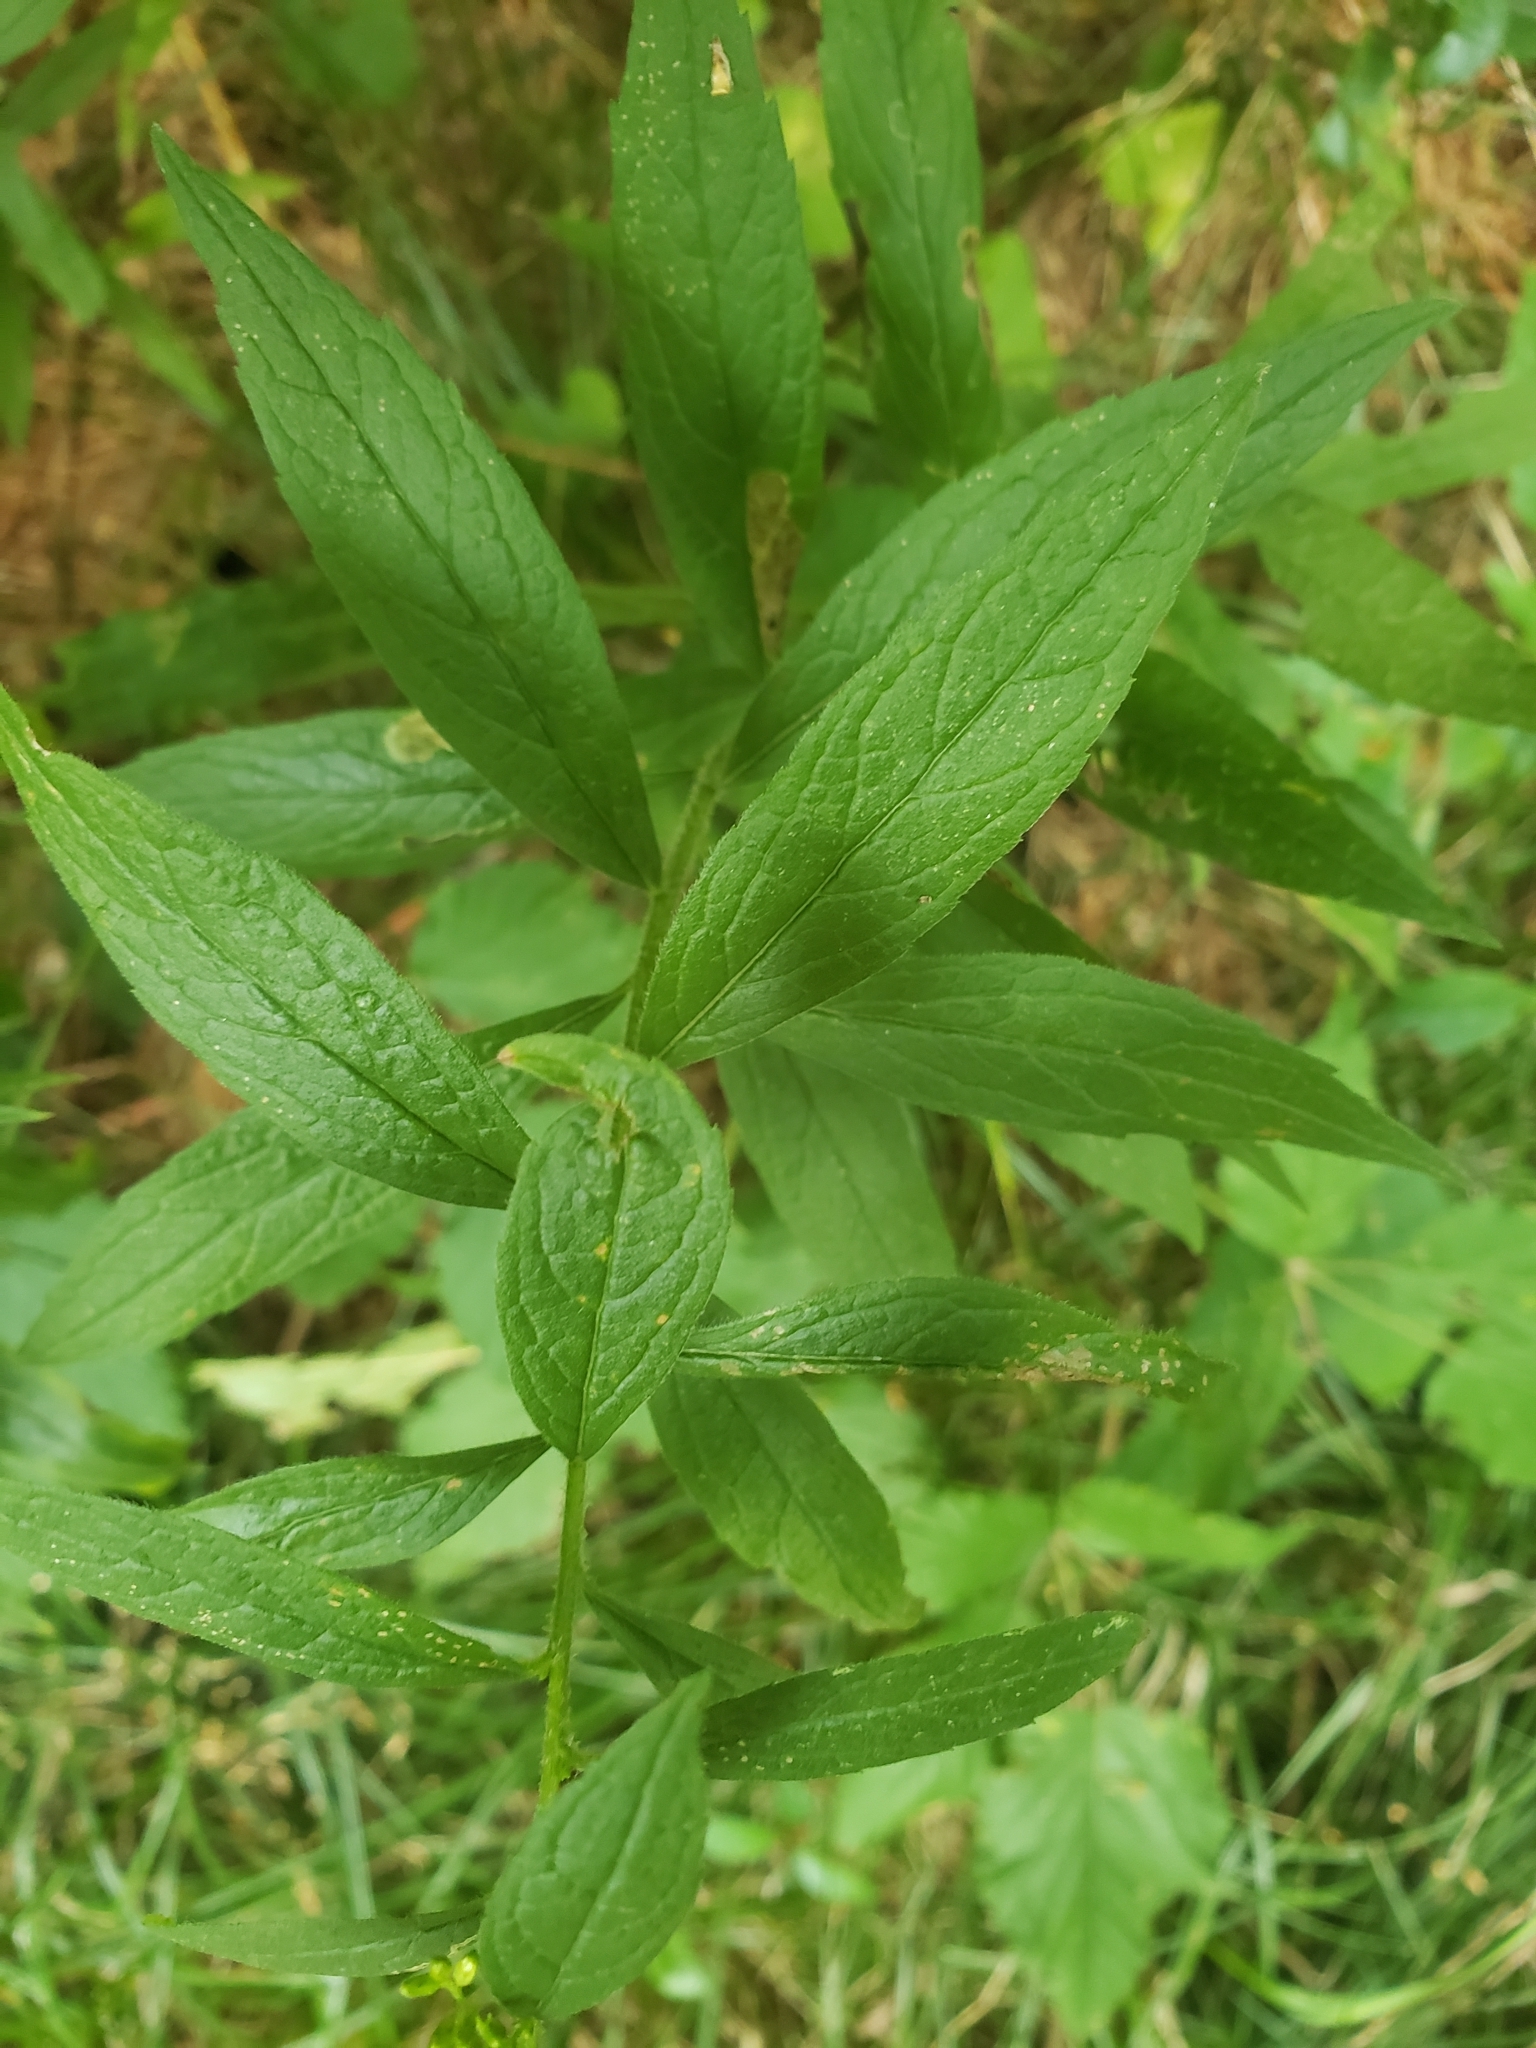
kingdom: Plantae
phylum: Tracheophyta
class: Magnoliopsida
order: Asterales
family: Asteraceae
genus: Solidago
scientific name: Solidago rugosa
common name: Rough-stemmed goldenrod
